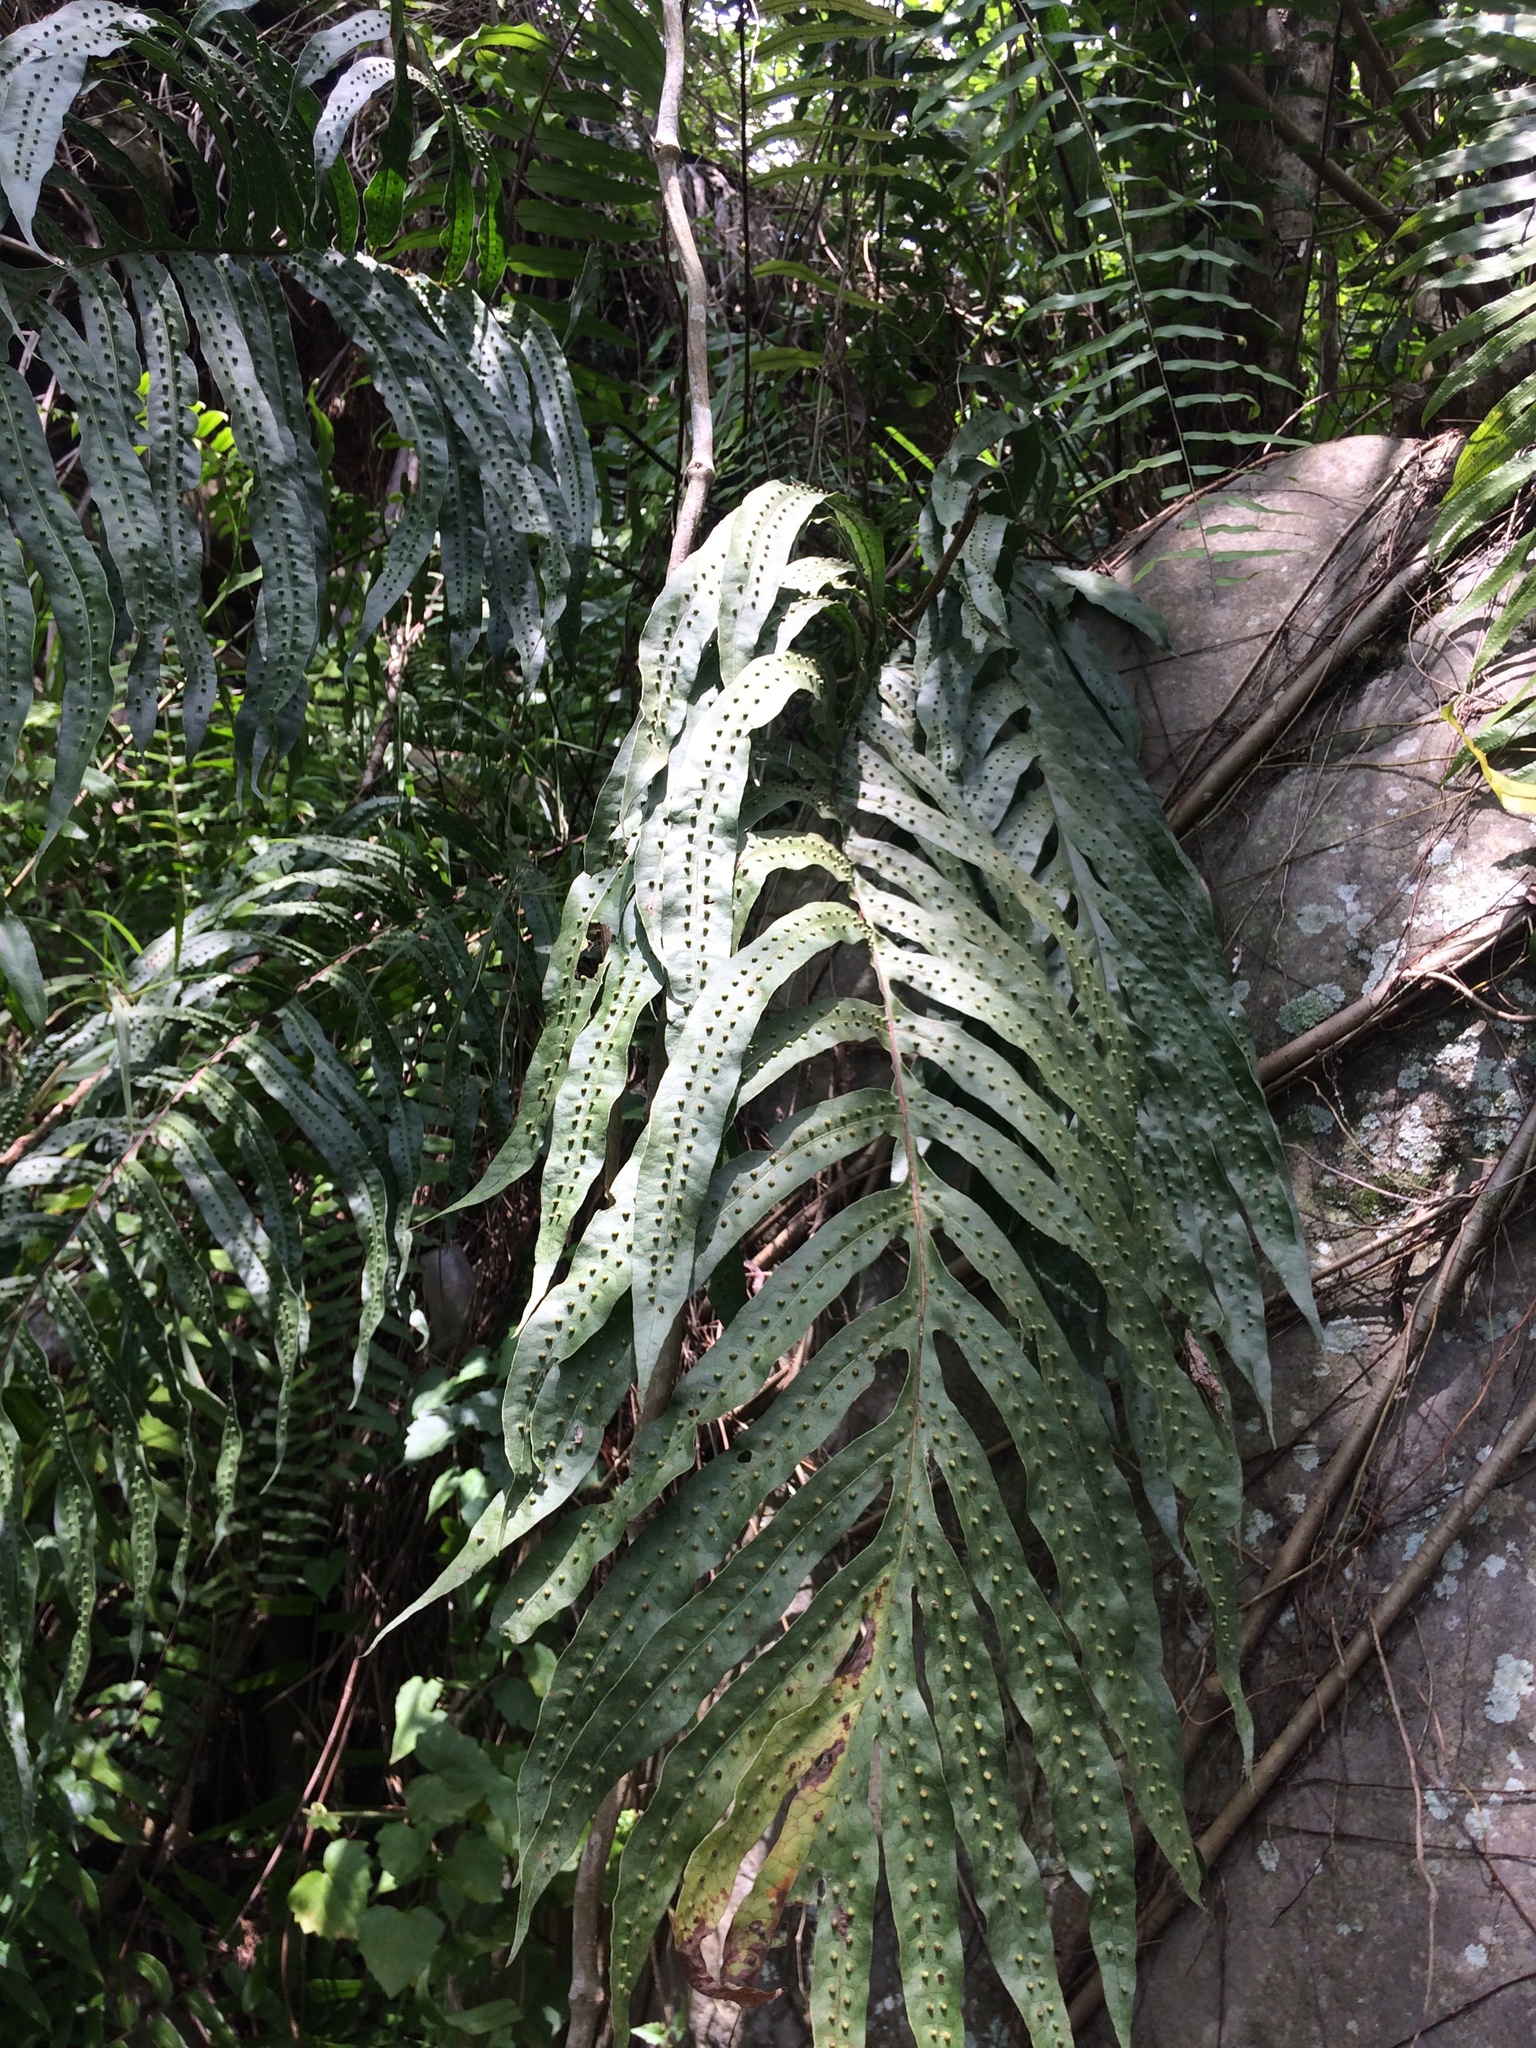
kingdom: Plantae
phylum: Tracheophyta
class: Polypodiopsida
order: Polypodiales
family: Polypodiaceae
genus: Microsorum
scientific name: Microsorum membranifolium
